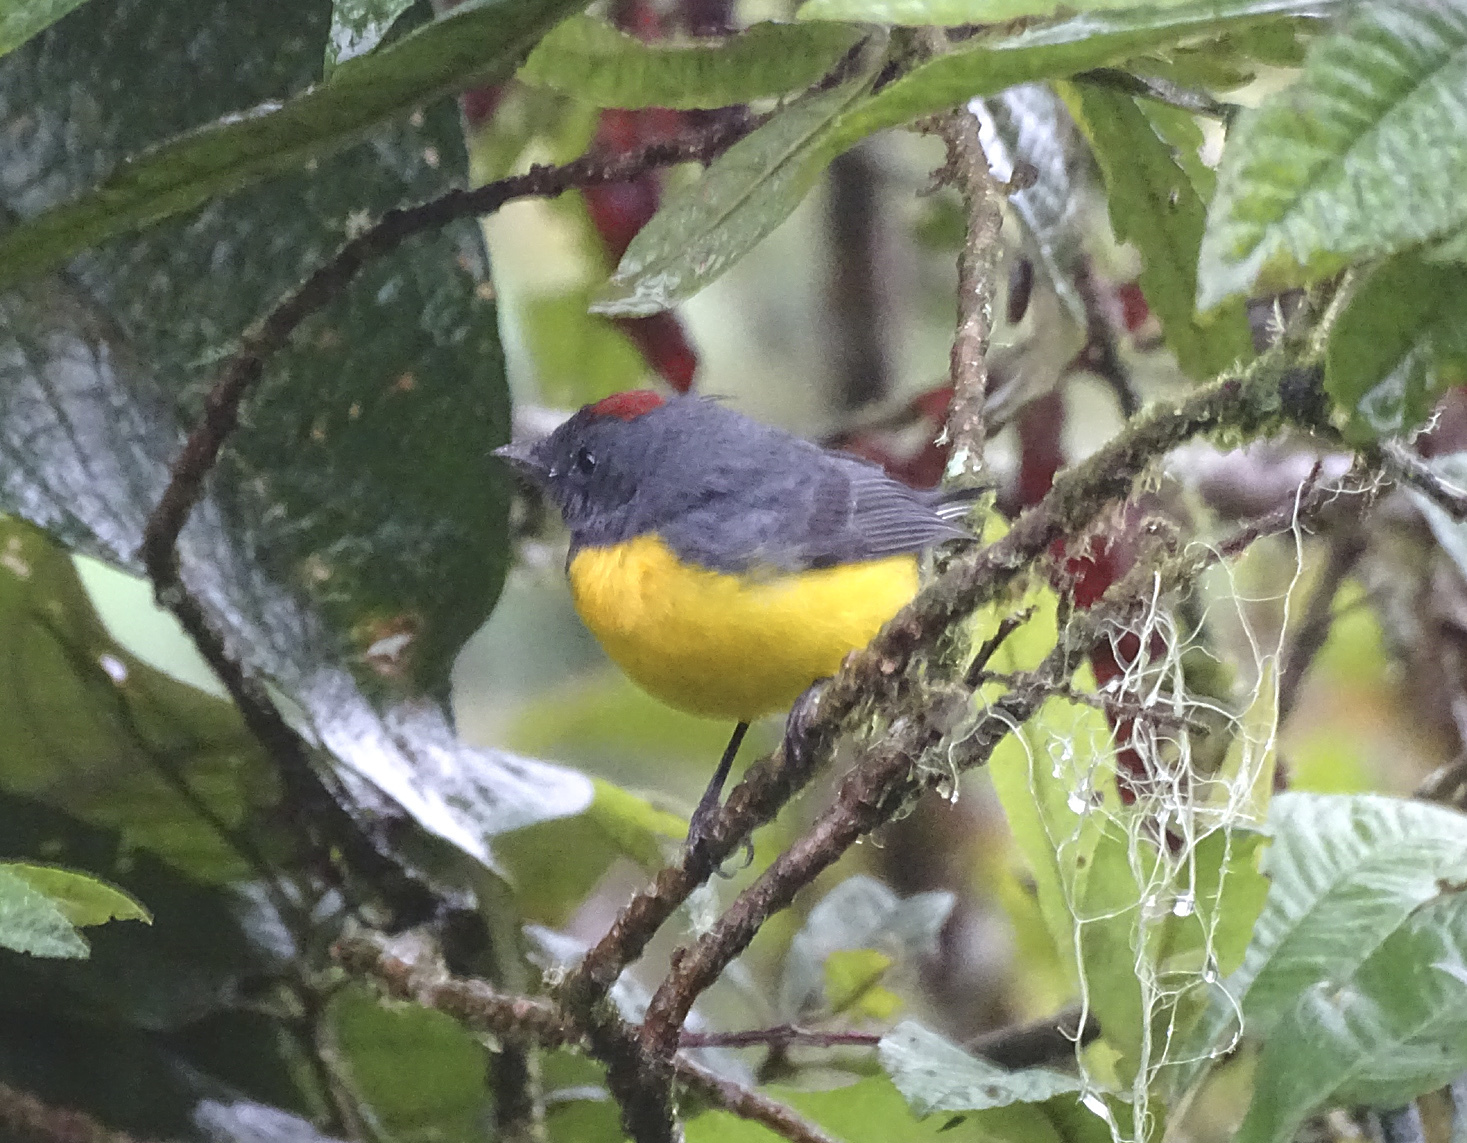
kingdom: Animalia
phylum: Chordata
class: Aves
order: Passeriformes
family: Parulidae
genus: Myioborus
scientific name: Myioborus miniatus
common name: Slate-throated redstart
